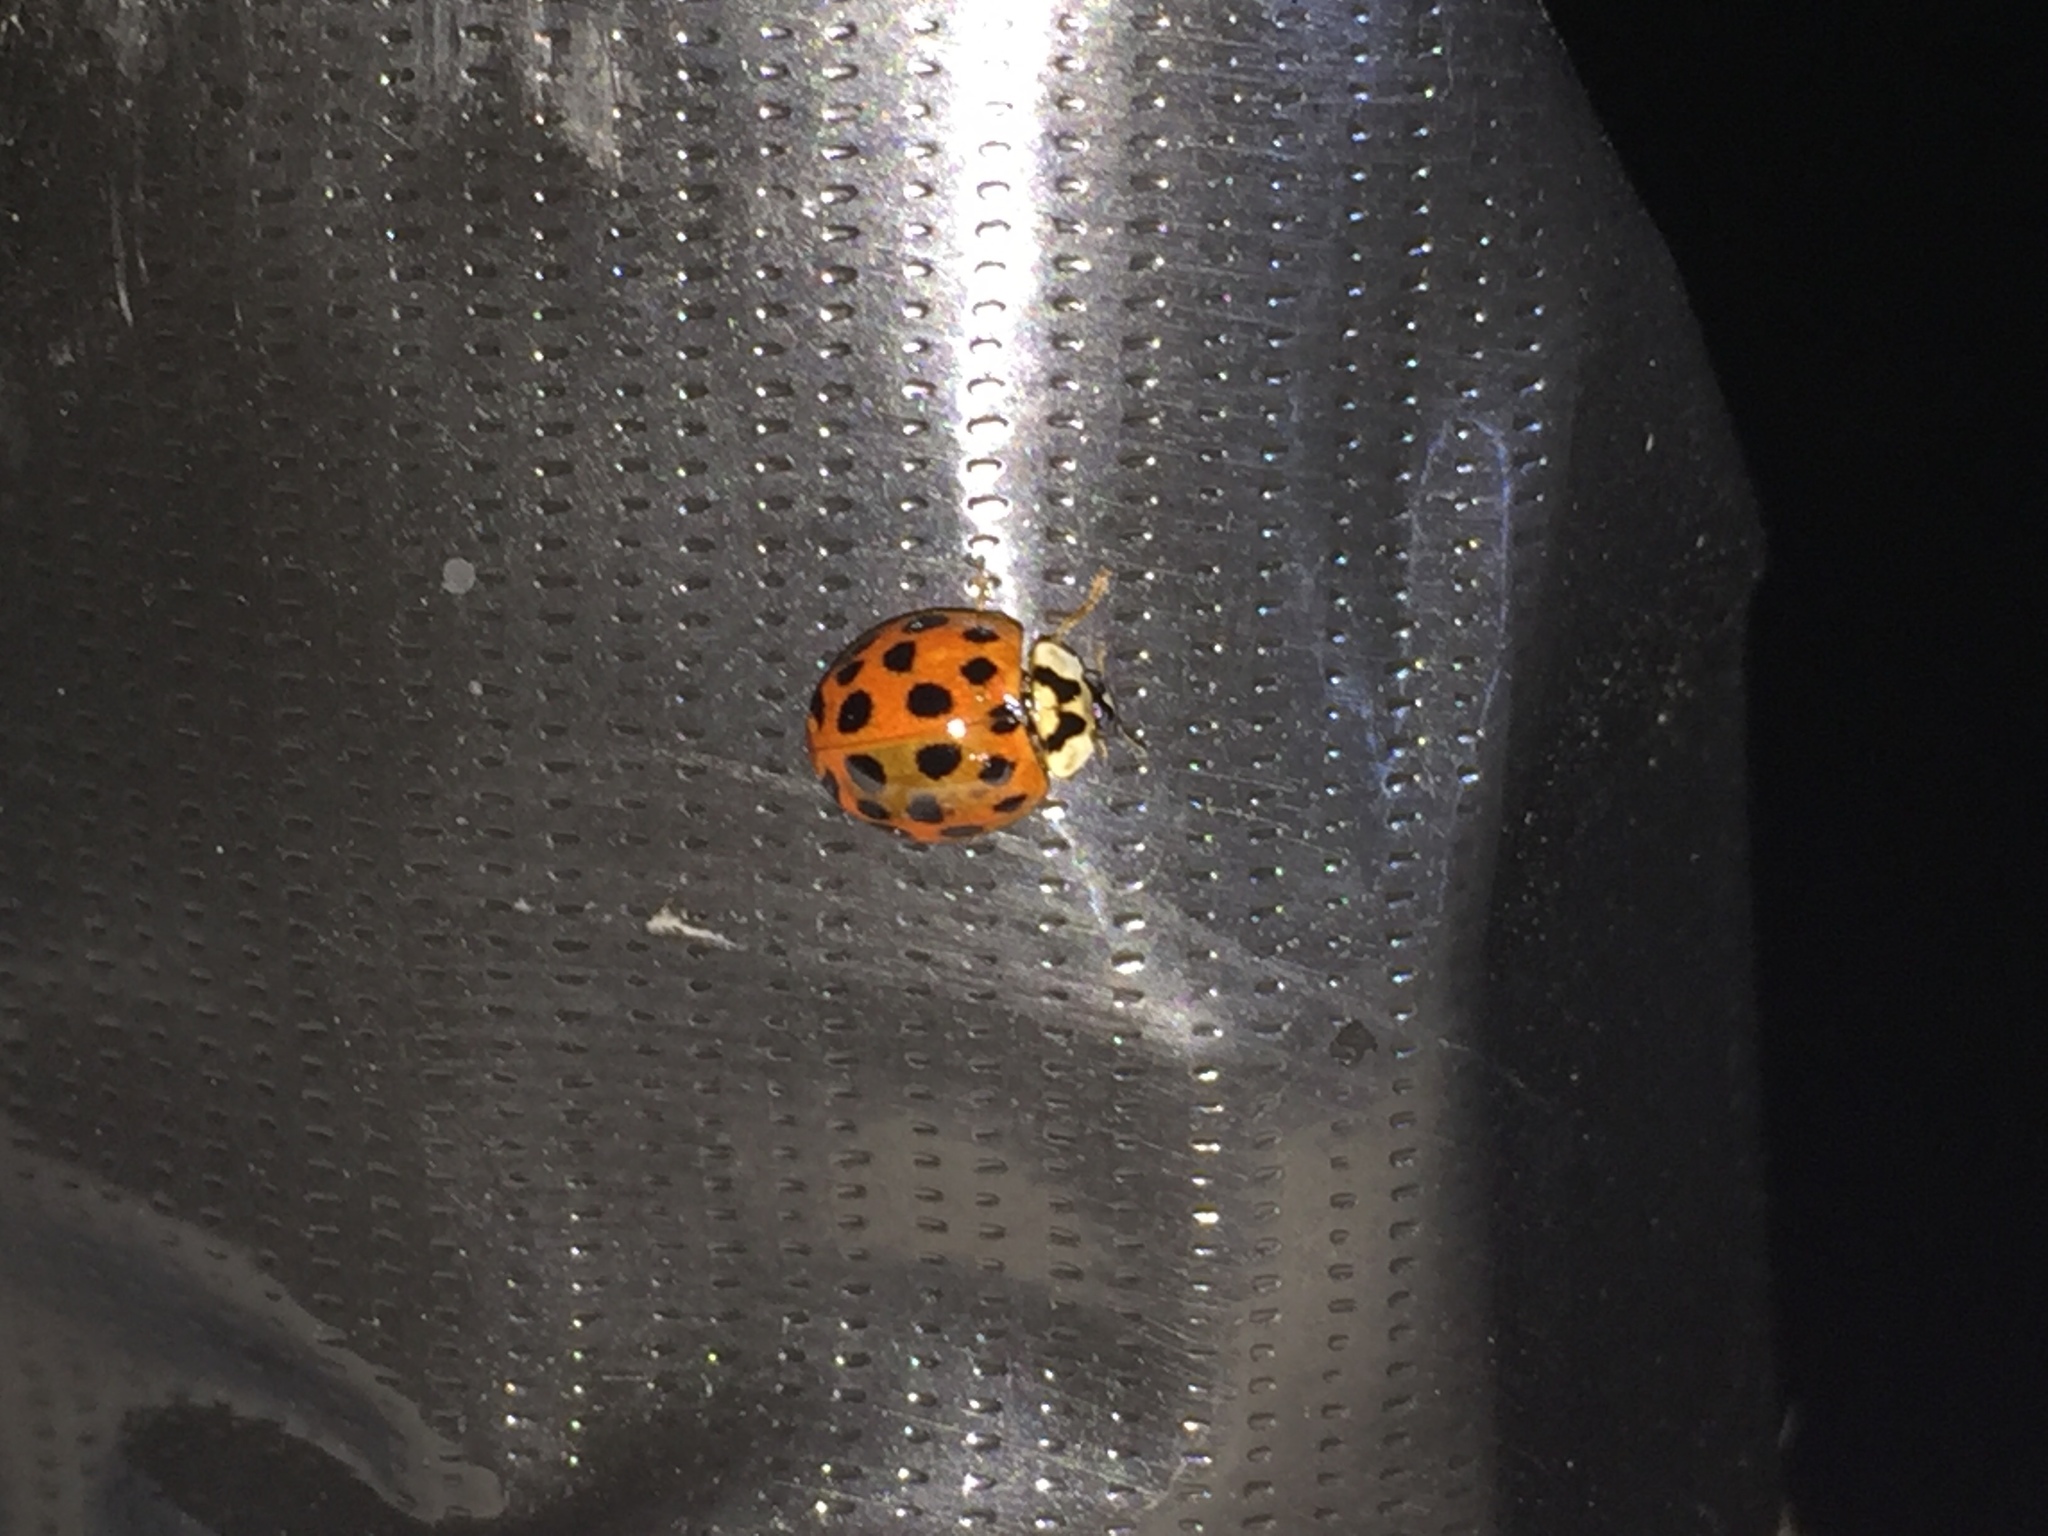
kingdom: Animalia
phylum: Arthropoda
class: Insecta
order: Coleoptera
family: Coccinellidae
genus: Harmonia
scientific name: Harmonia axyridis
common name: Harlequin ladybird
